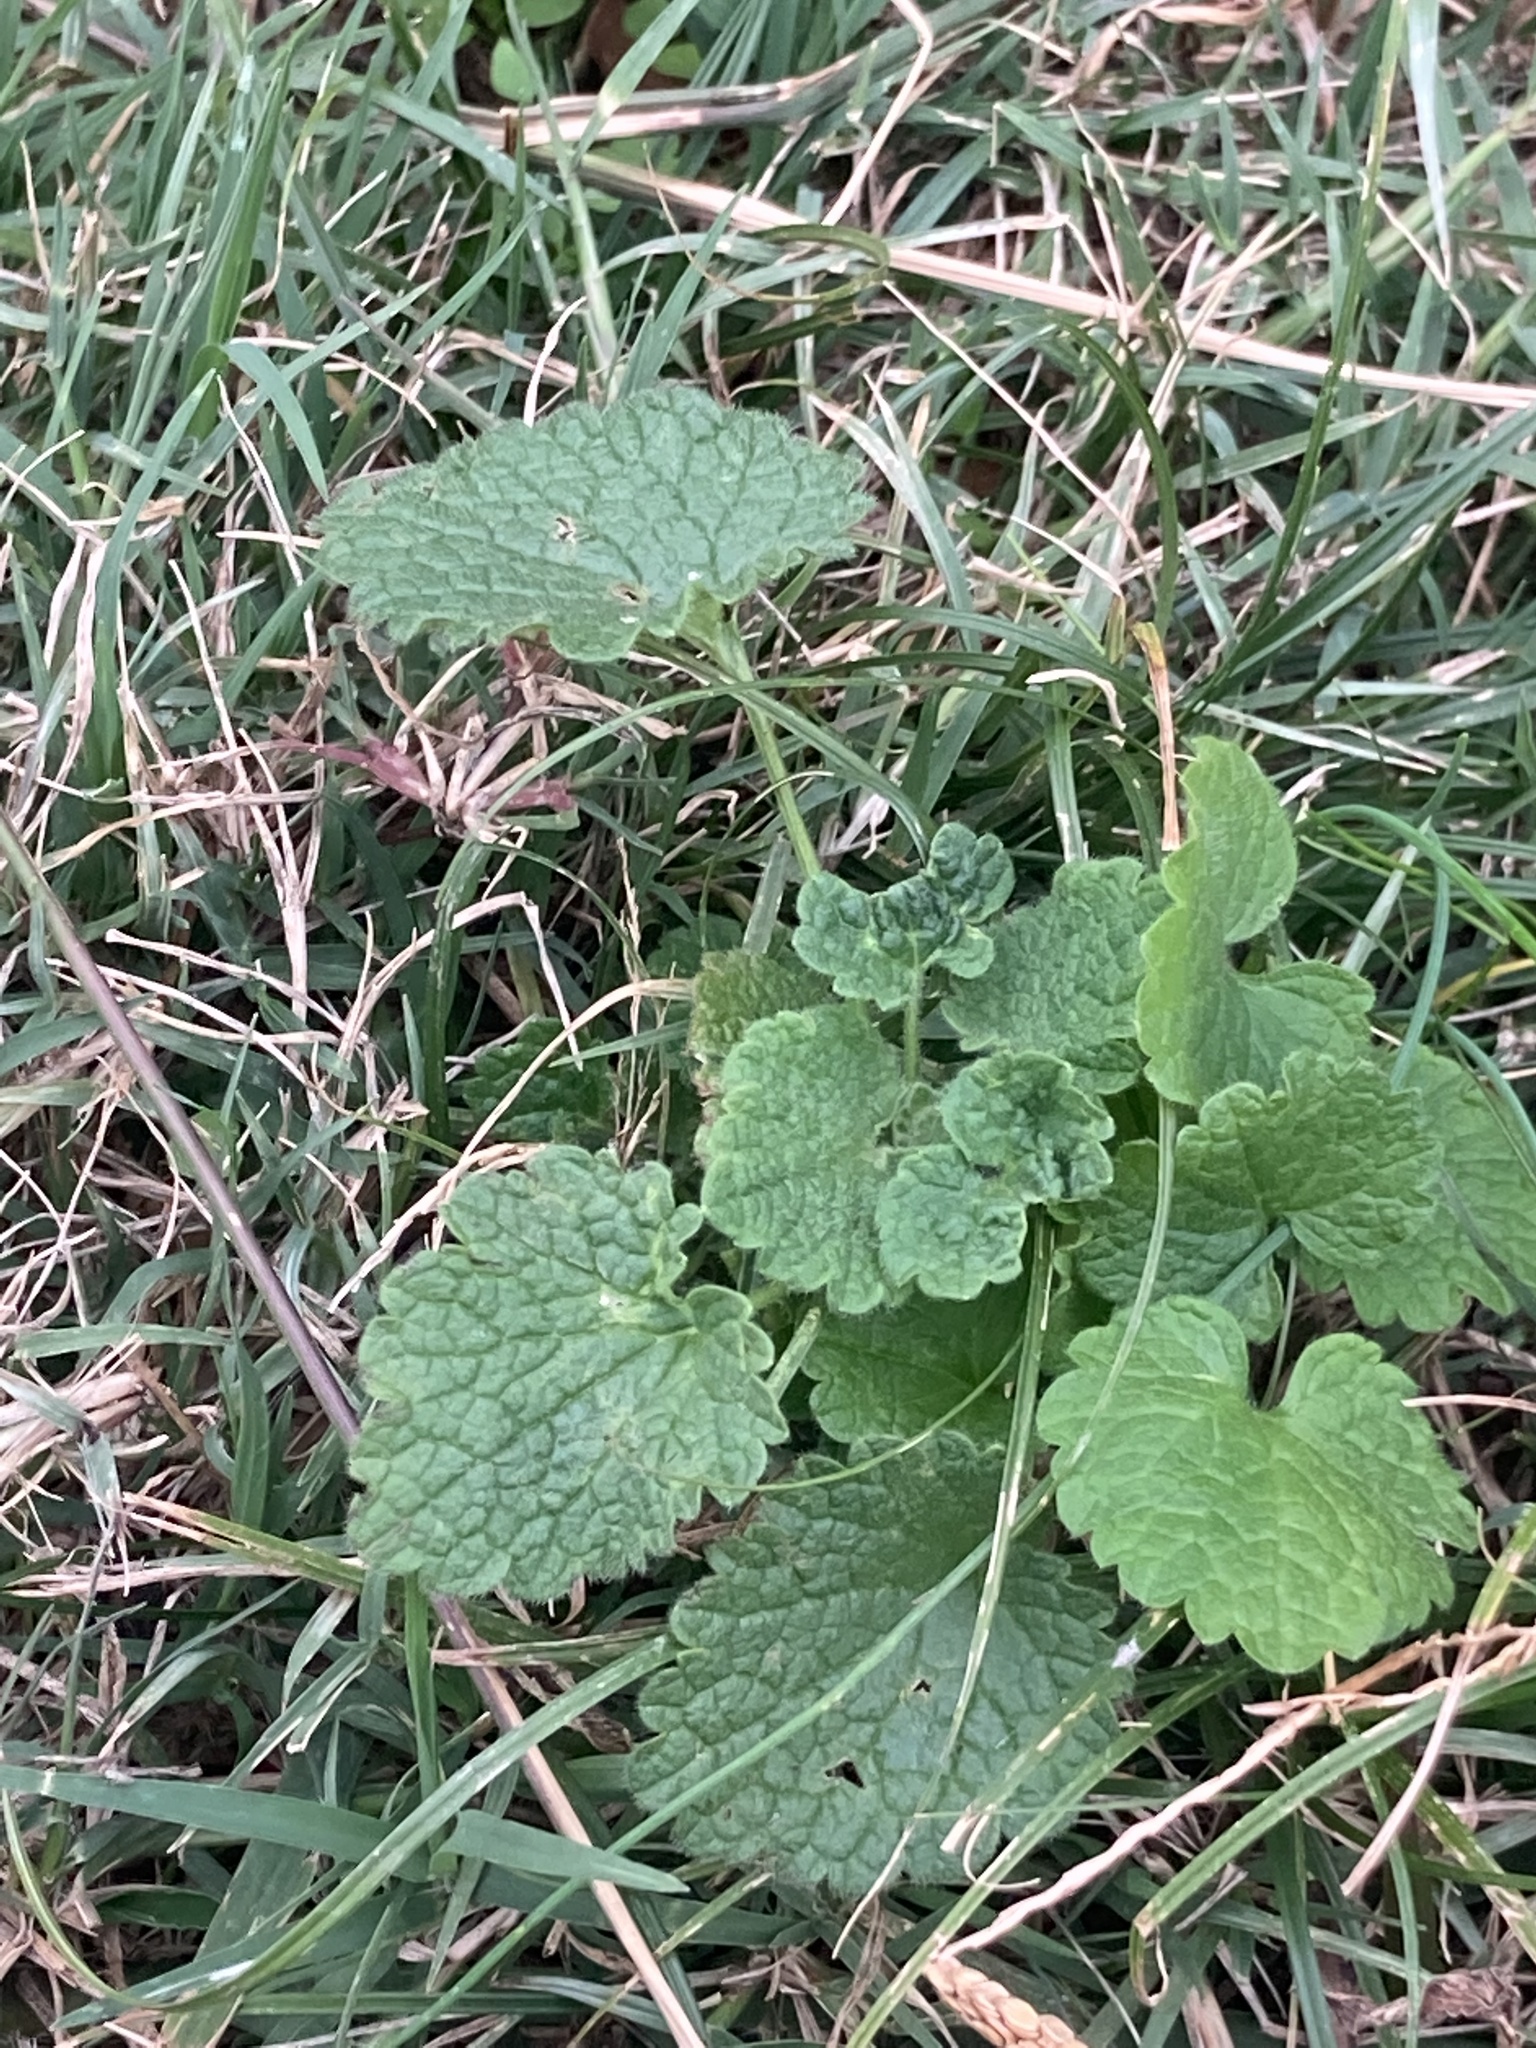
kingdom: Plantae
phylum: Tracheophyta
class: Magnoliopsida
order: Lamiales
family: Lamiaceae
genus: Lamium
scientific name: Lamium purpureum
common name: Red dead-nettle
